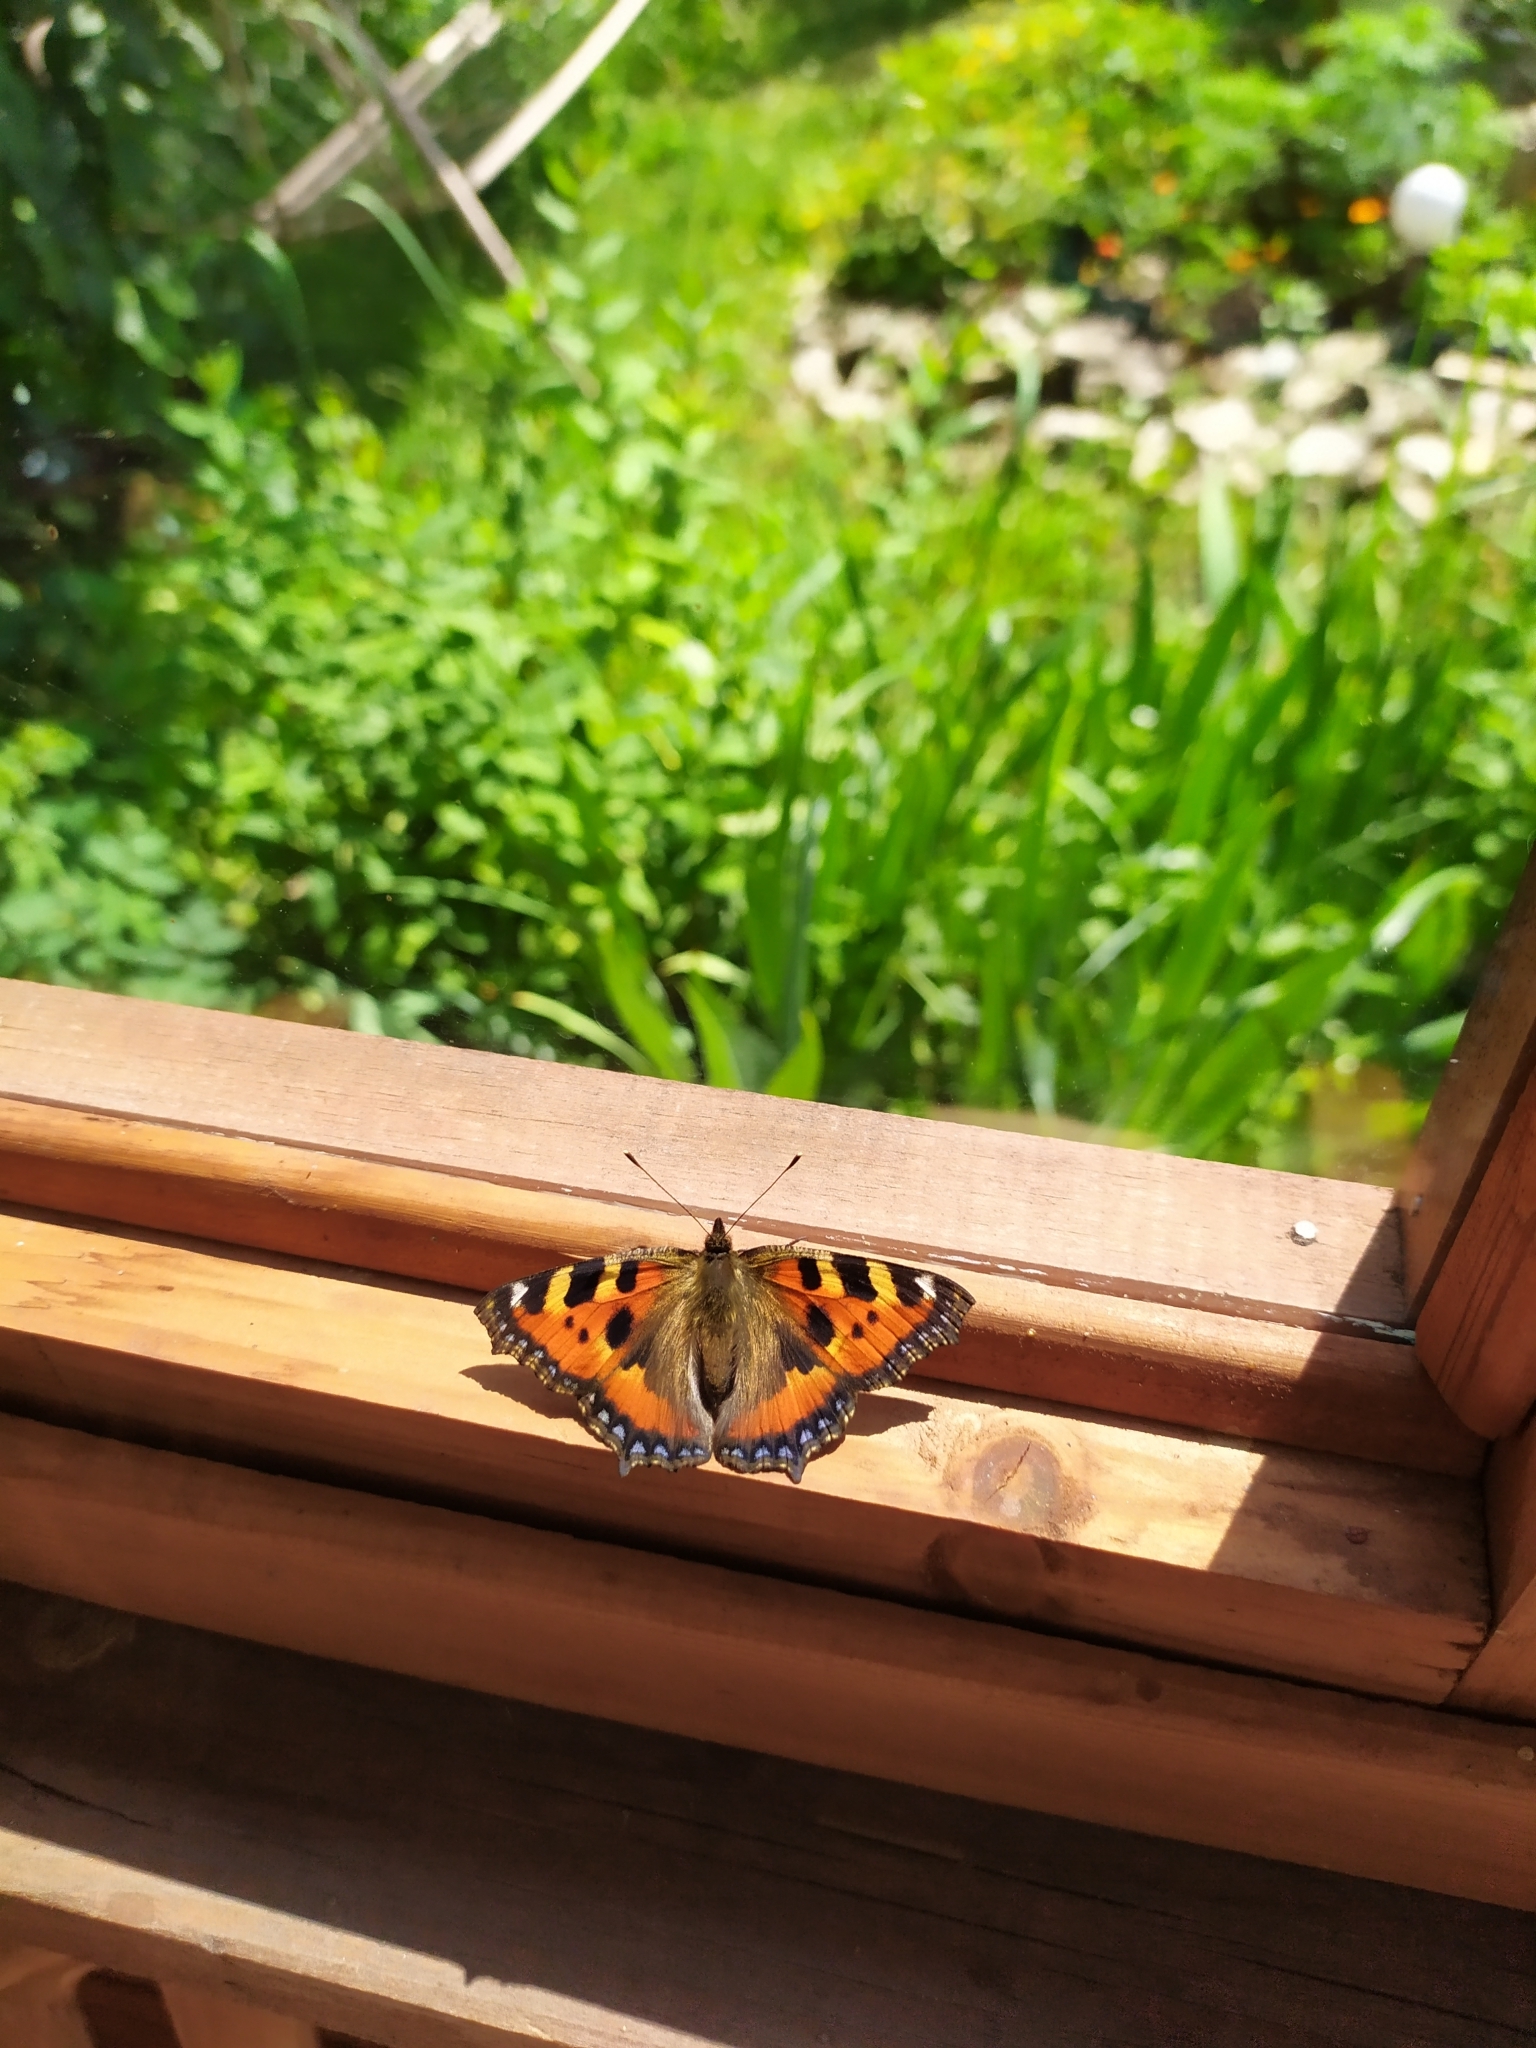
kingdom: Animalia
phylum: Arthropoda
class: Insecta
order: Lepidoptera
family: Nymphalidae
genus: Aglais
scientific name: Aglais urticae
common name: Small tortoiseshell
